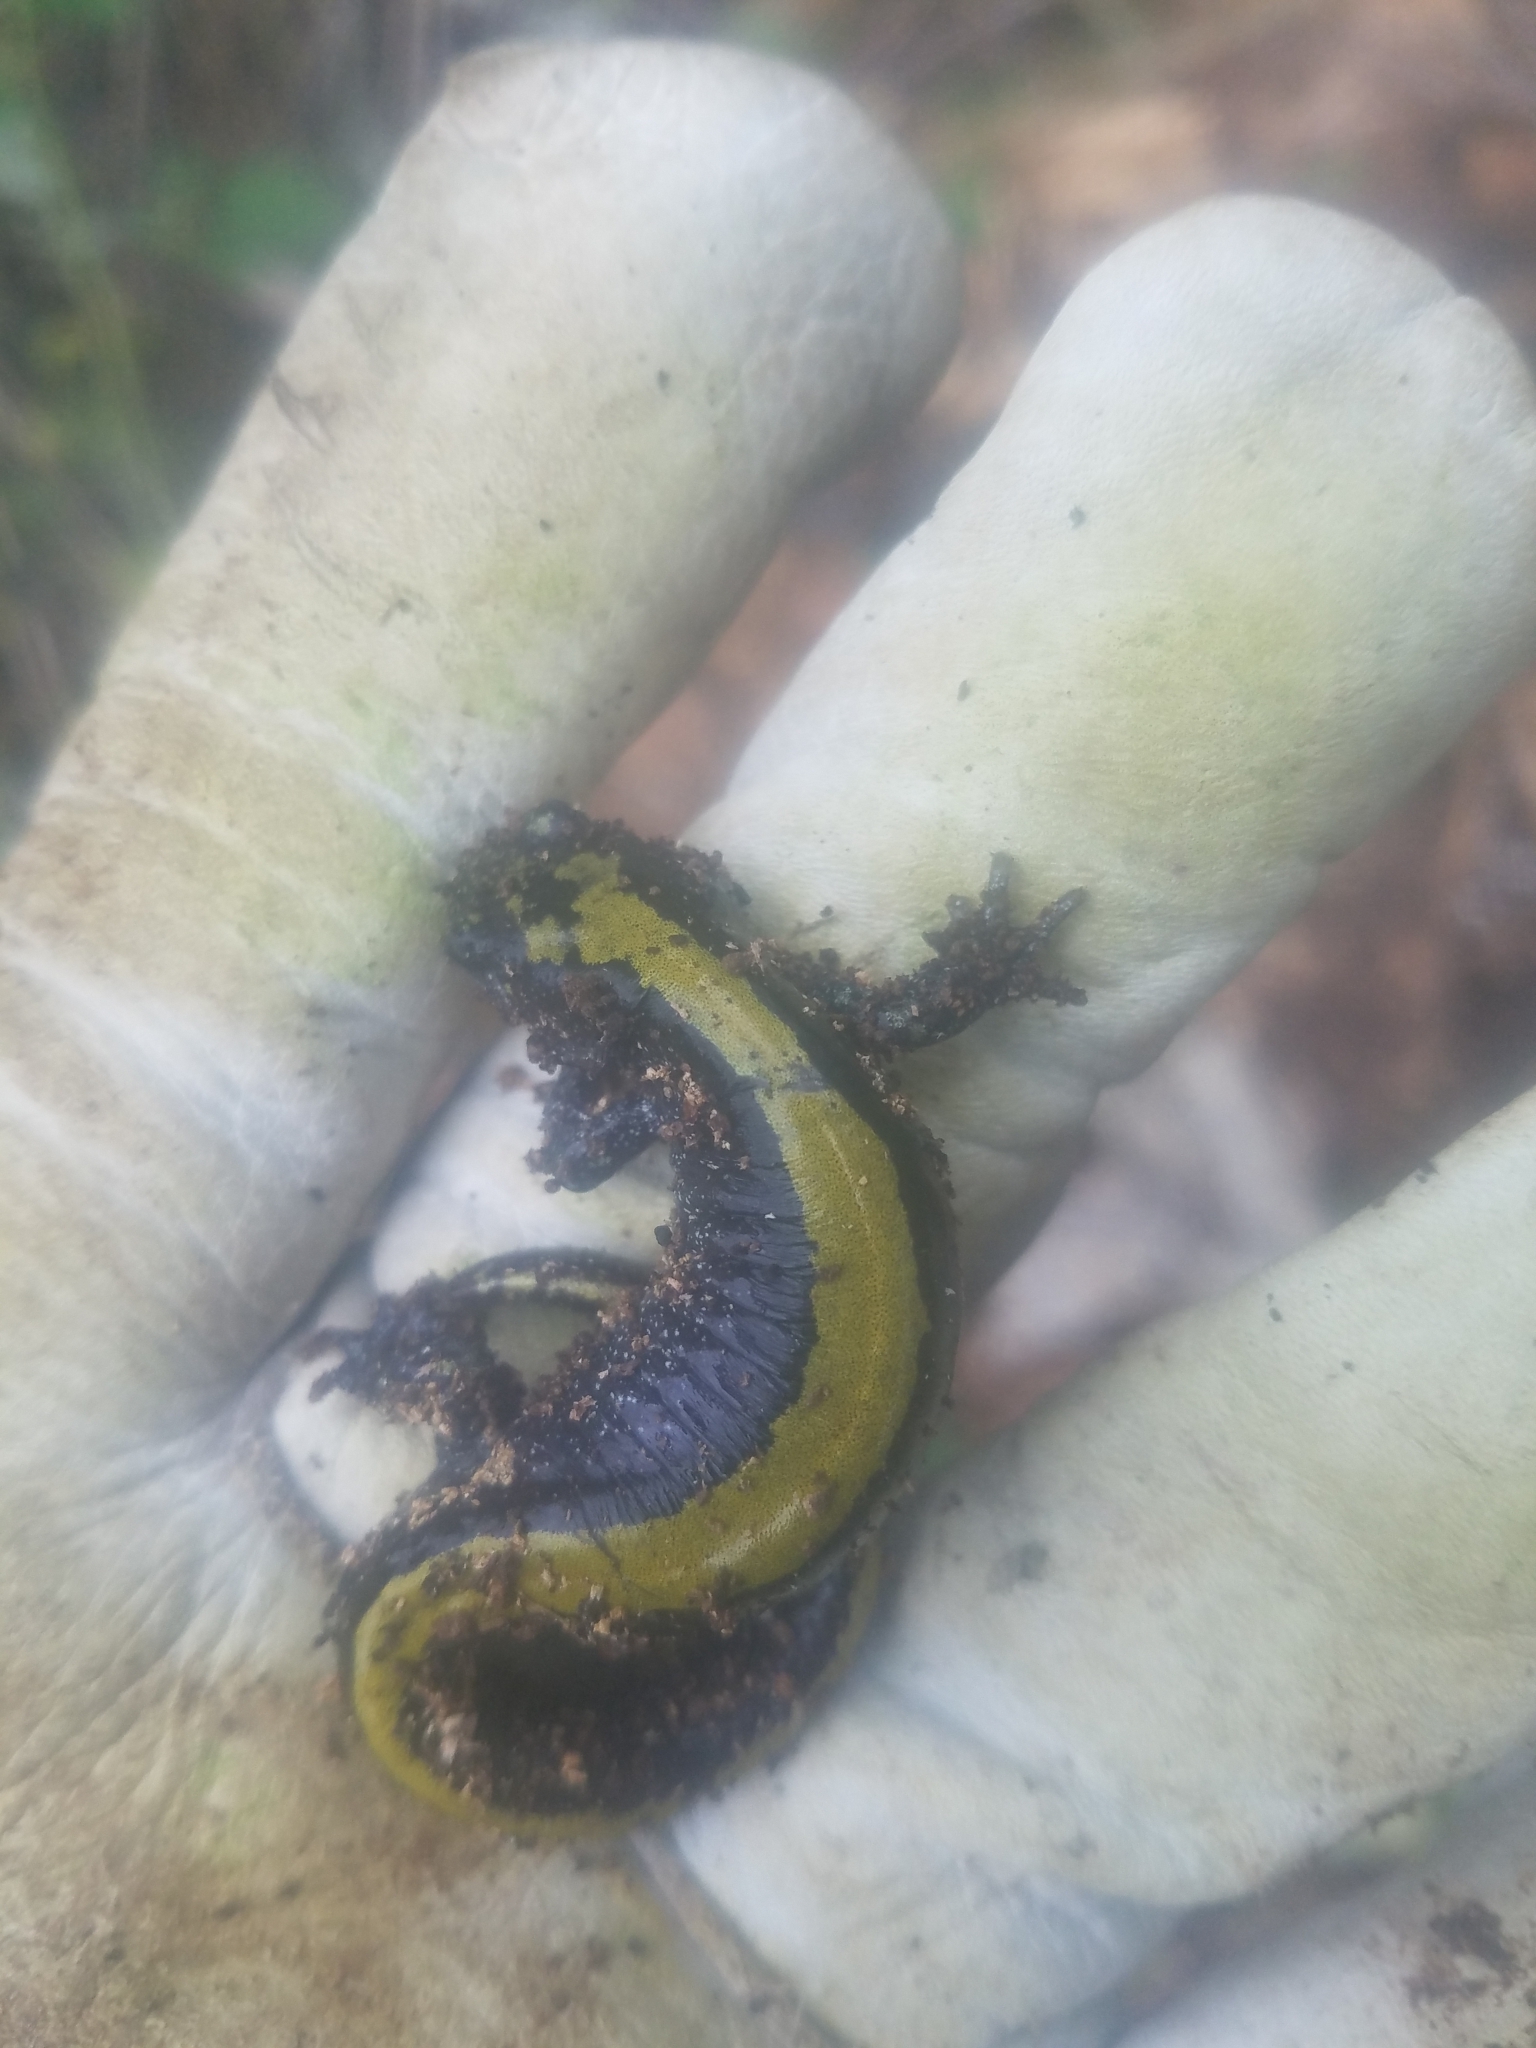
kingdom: Animalia
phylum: Chordata
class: Amphibia
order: Caudata
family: Ambystomatidae
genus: Ambystoma
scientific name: Ambystoma macrodactylum
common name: Long-toed salamander
